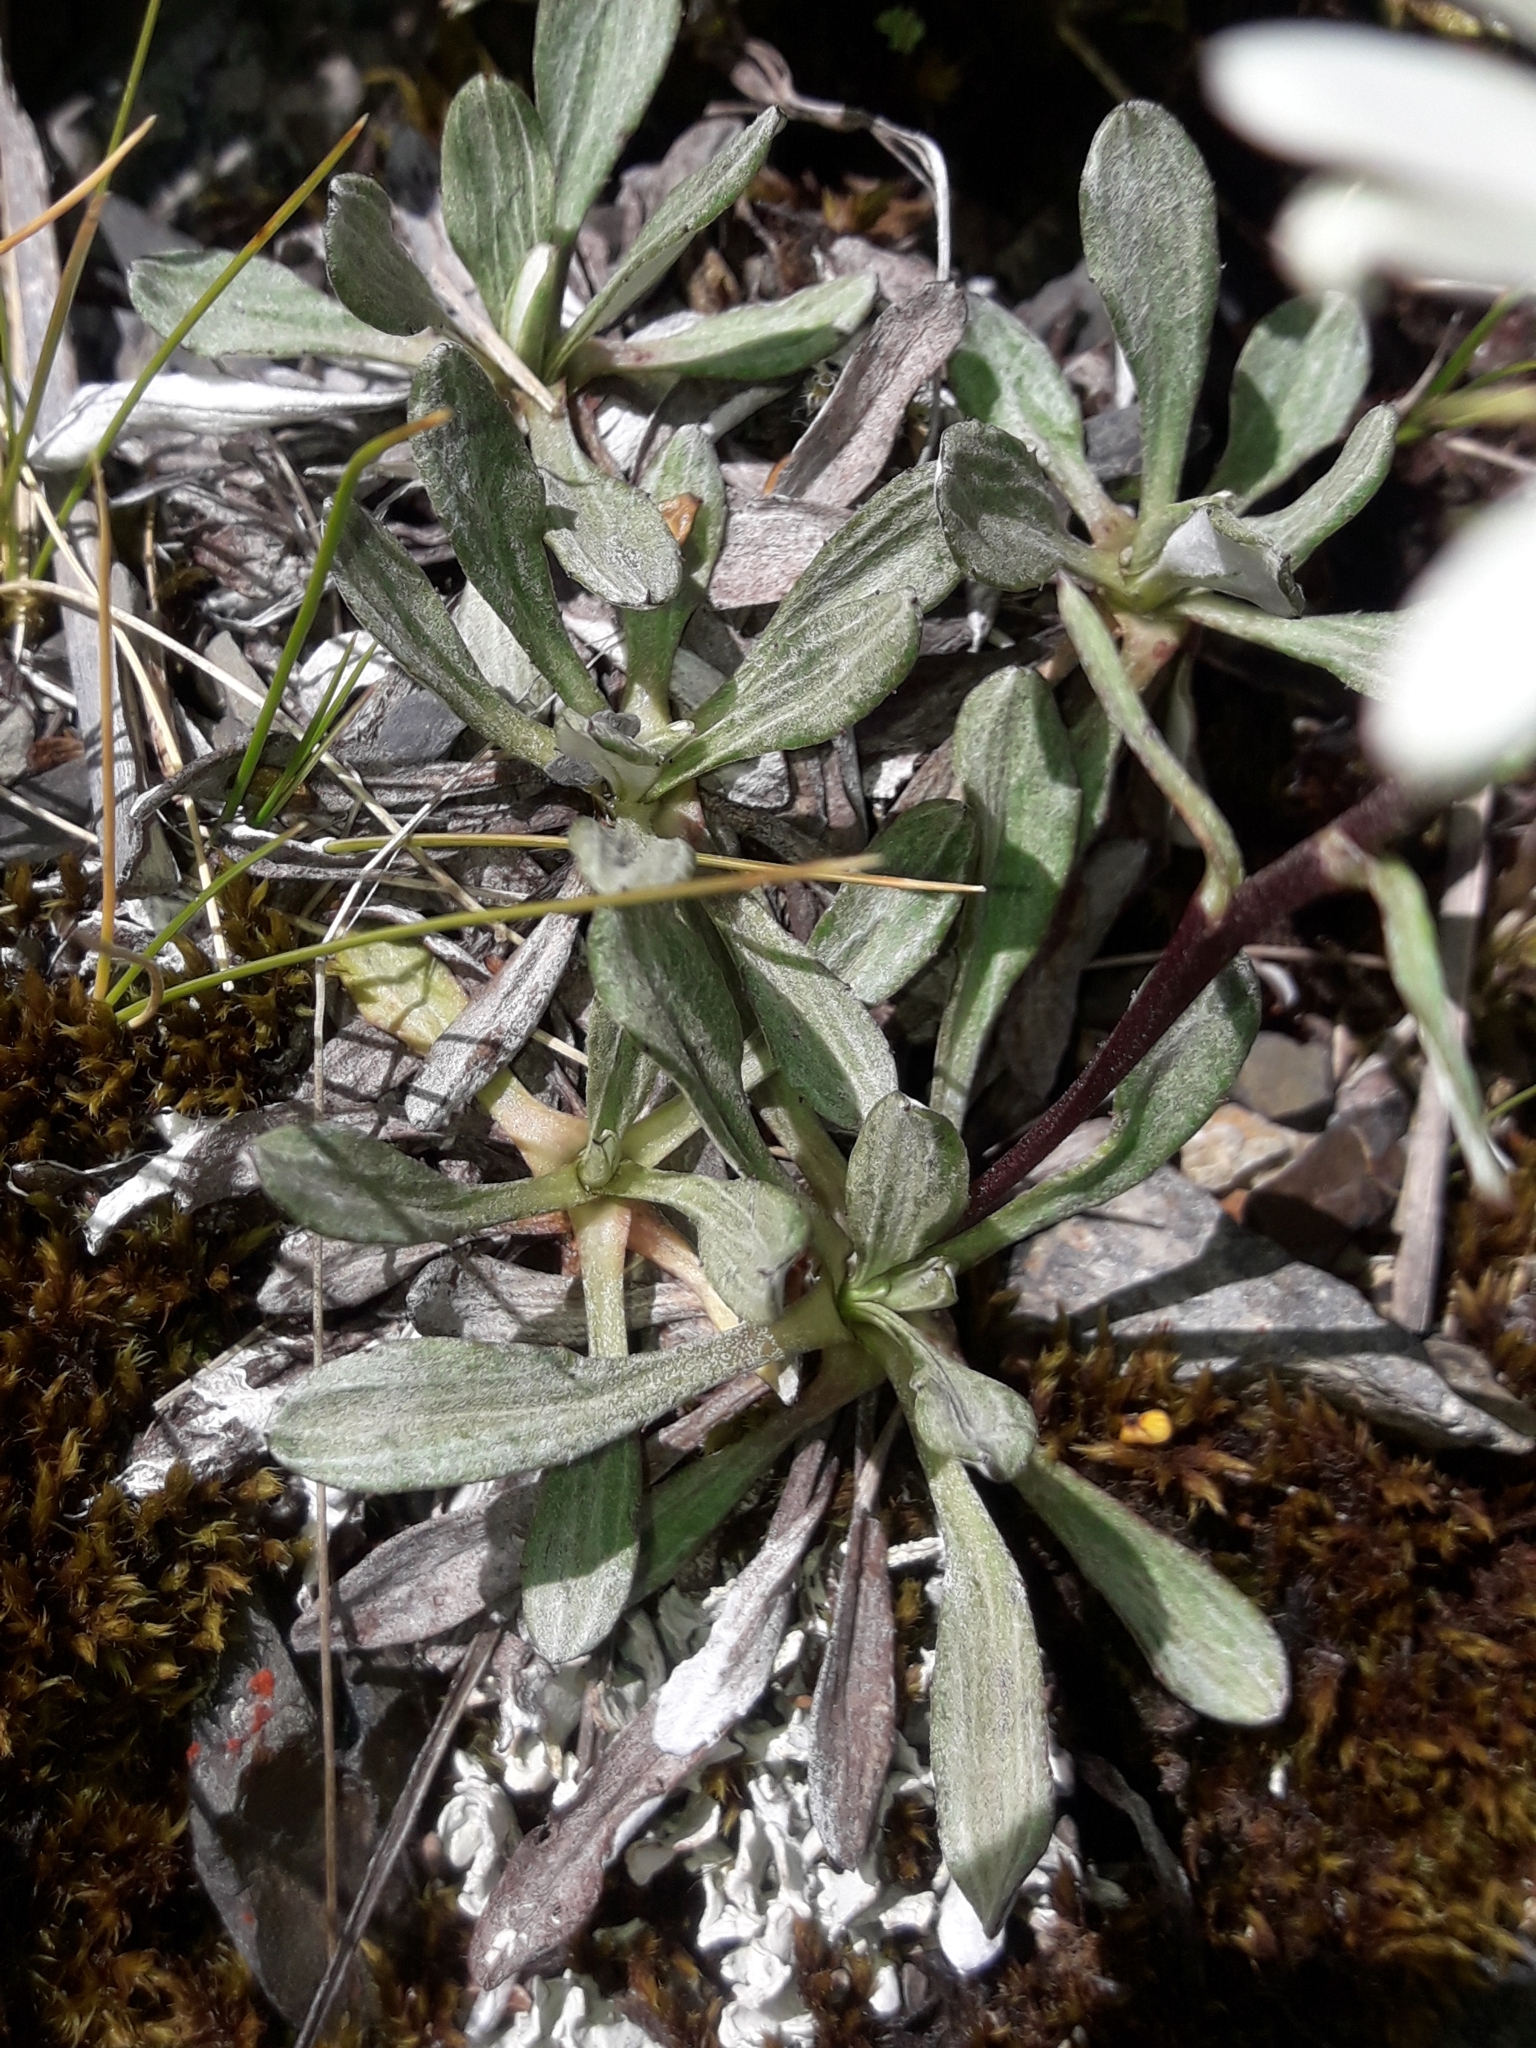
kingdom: Plantae
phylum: Tracheophyta
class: Magnoliopsida
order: Asterales
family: Asteraceae
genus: Celmisia
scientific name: Celmisia durietzii
